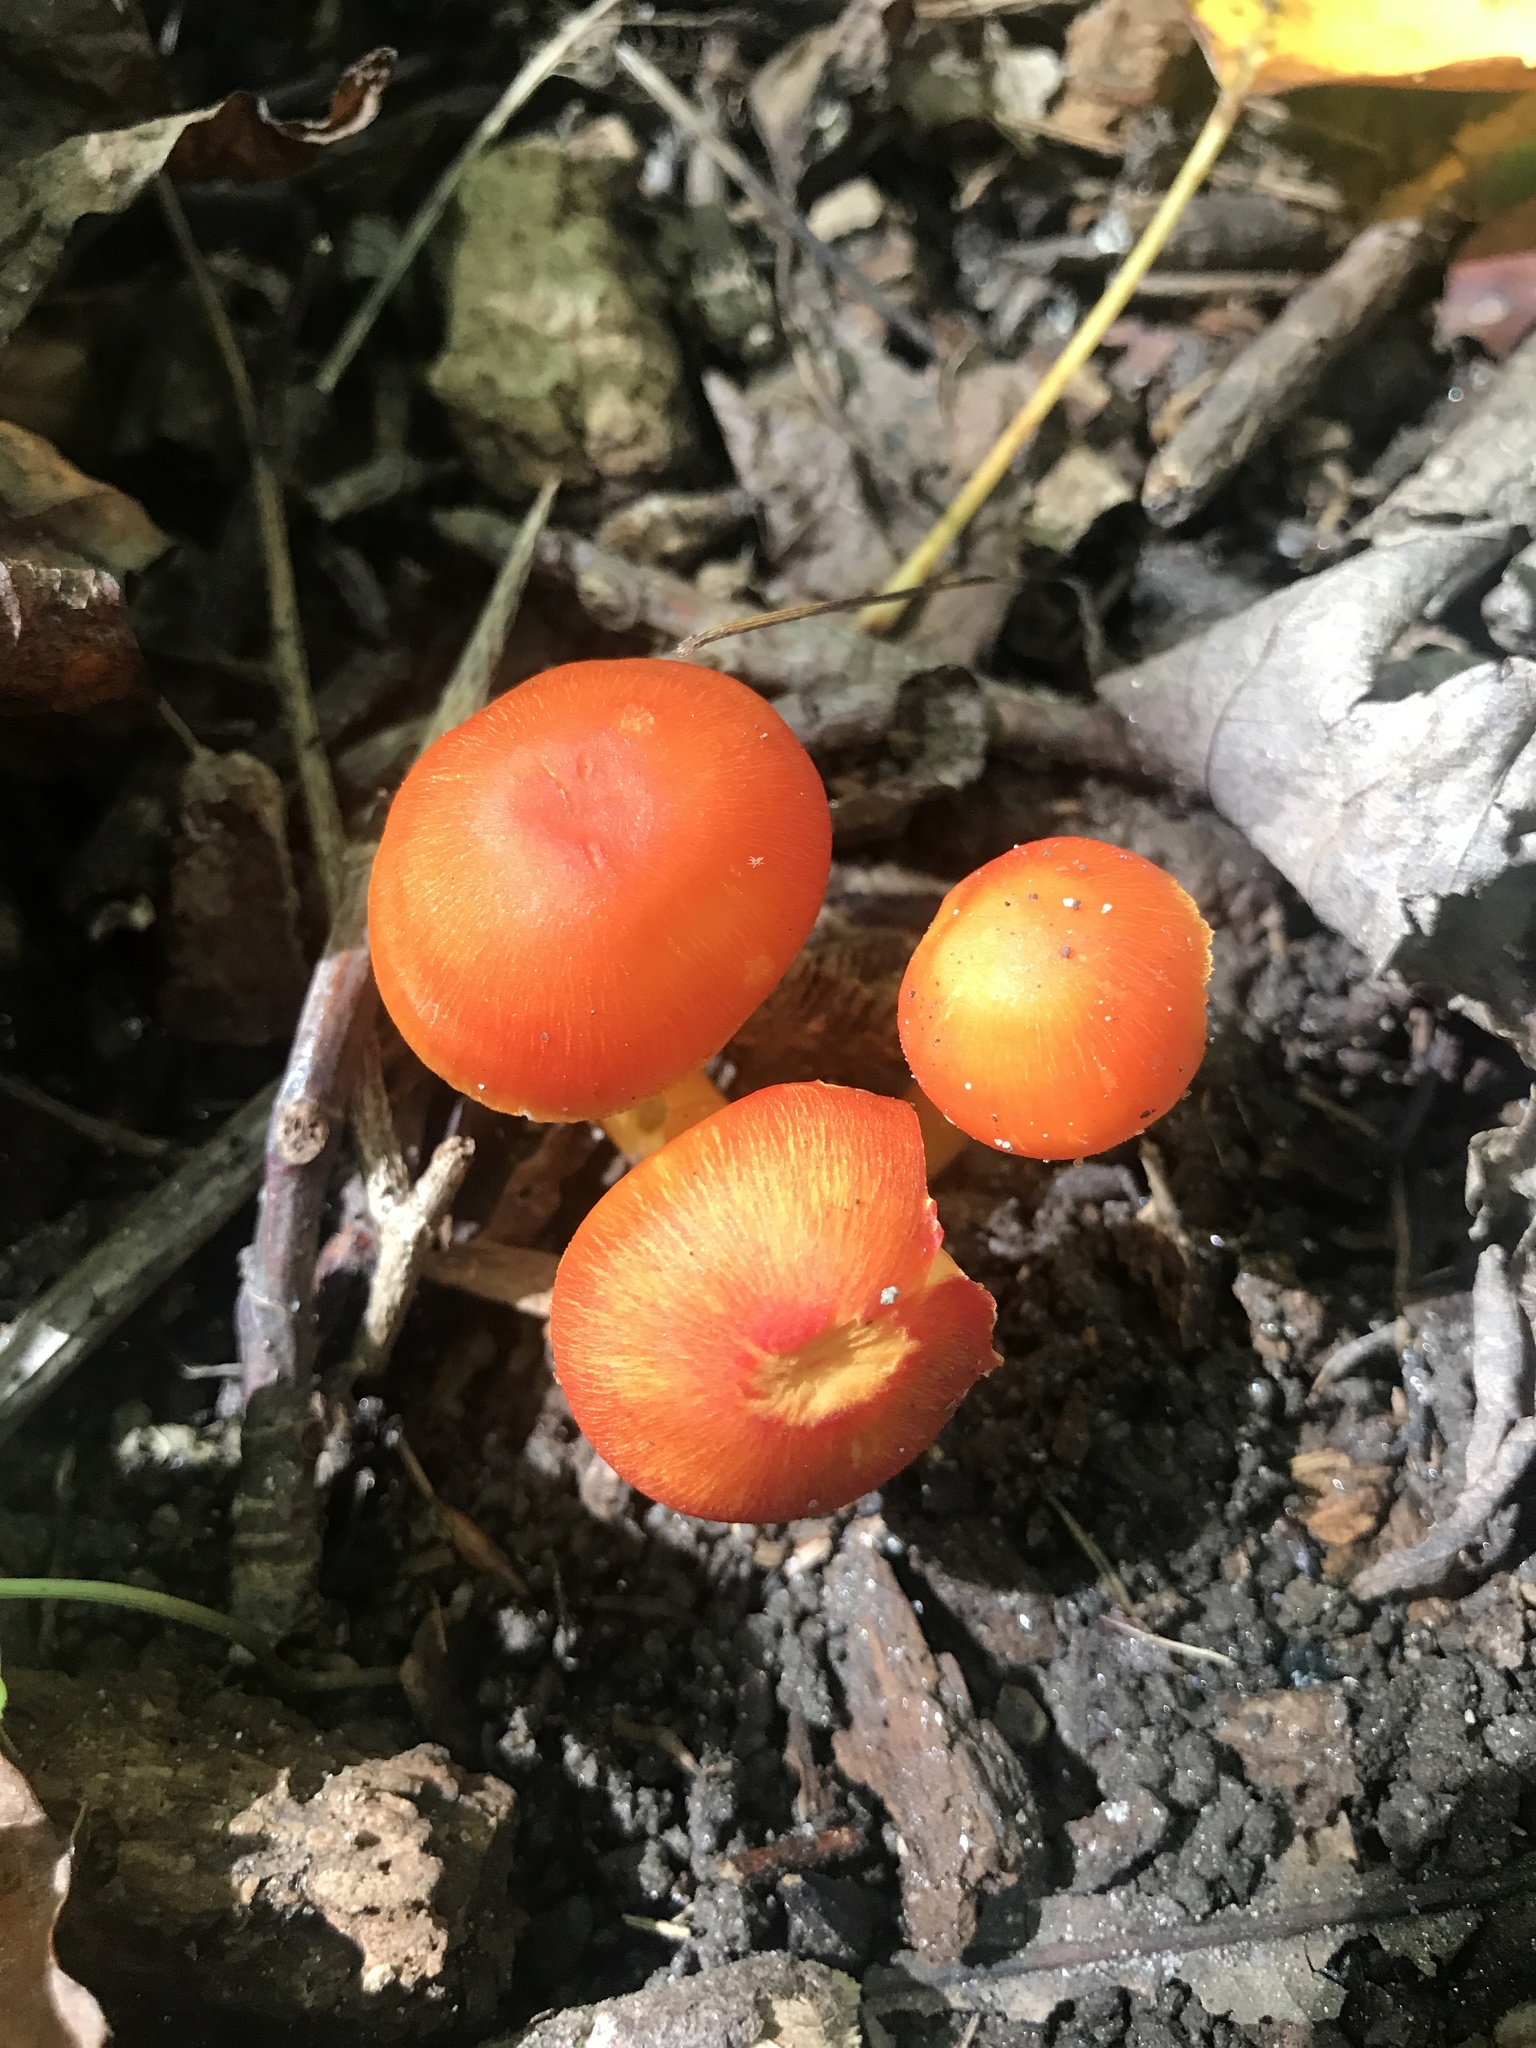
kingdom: Fungi
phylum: Basidiomycota
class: Agaricomycetes
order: Agaricales
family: Hygrophoraceae
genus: Hygrocybe
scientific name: Hygrocybe miniata
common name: Vermilion waxcap
